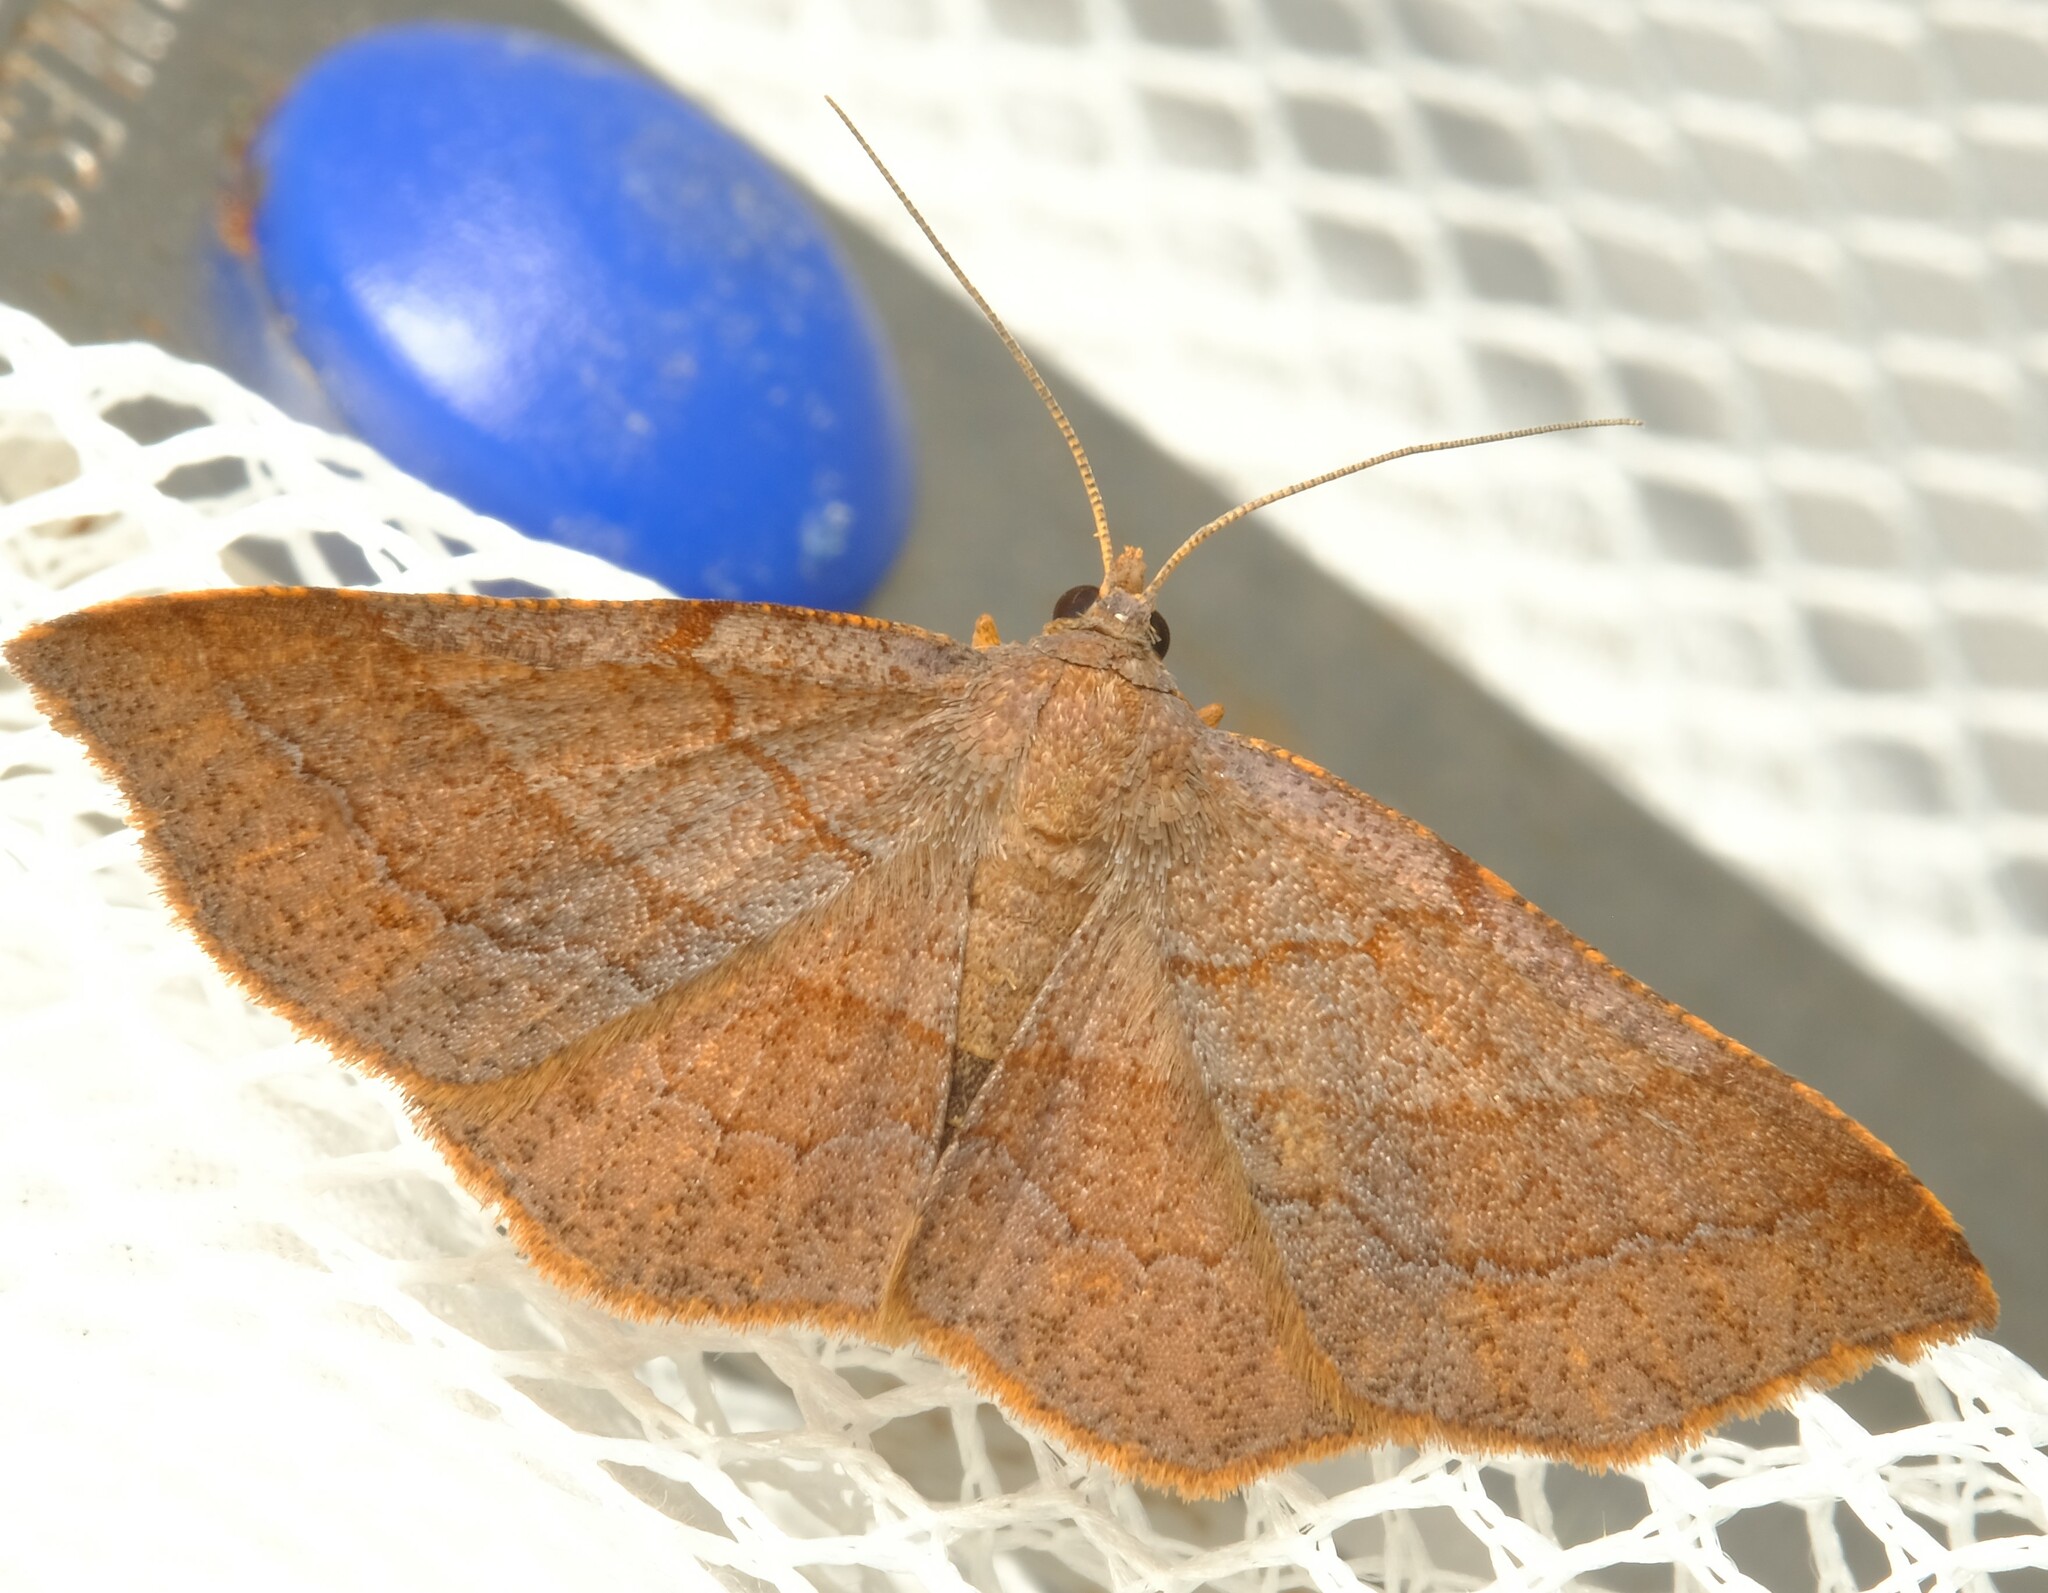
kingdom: Animalia
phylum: Arthropoda
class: Insecta
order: Lepidoptera
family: Geometridae
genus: Urostola
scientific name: Urostola magica
